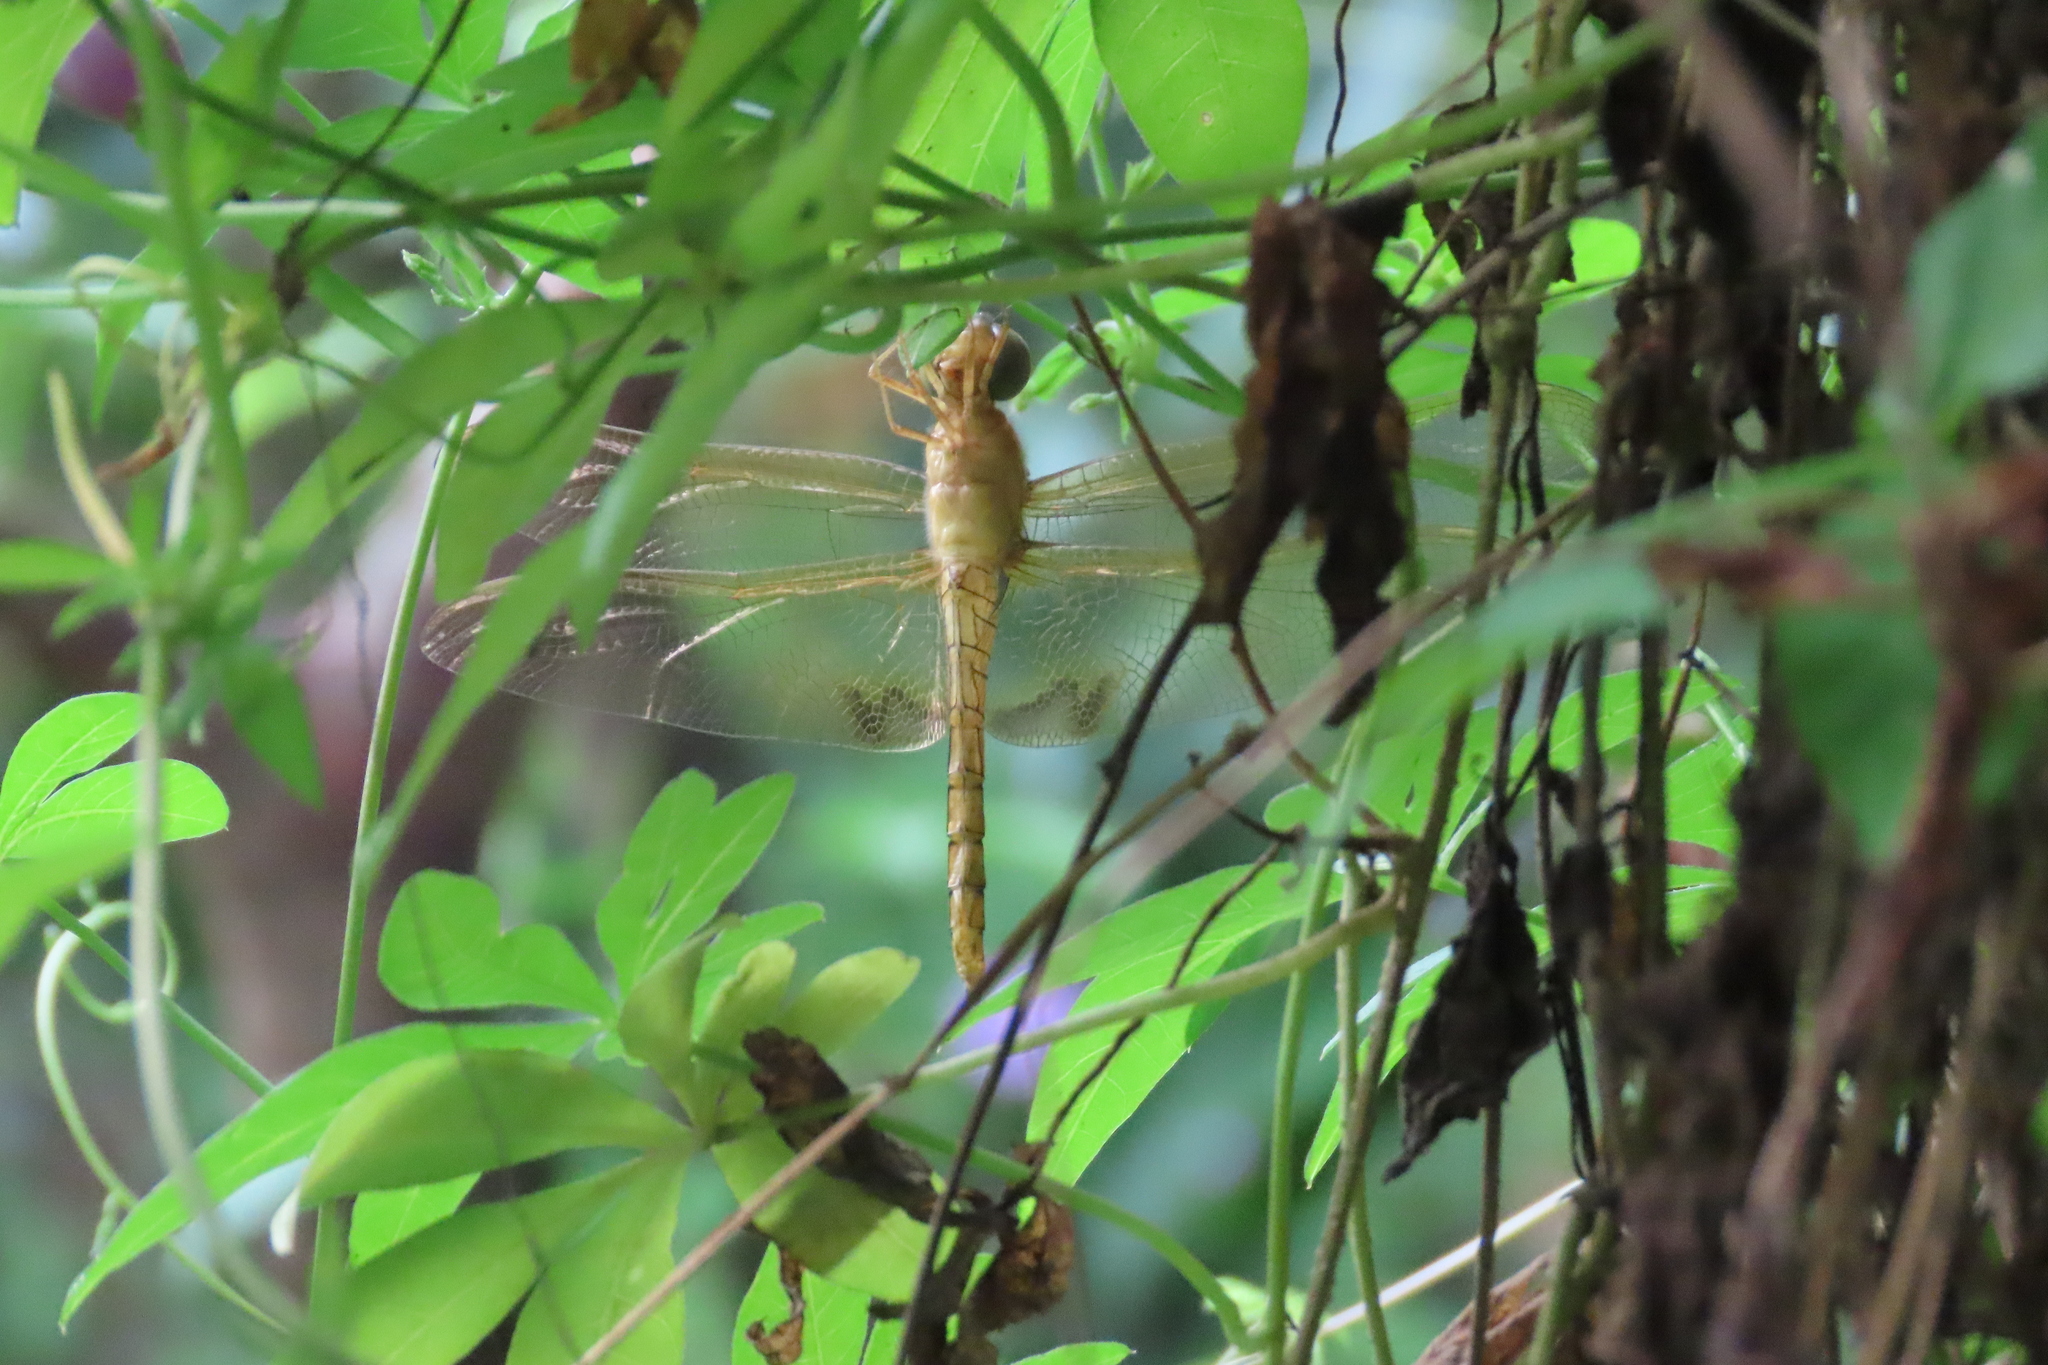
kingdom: Animalia
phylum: Arthropoda
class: Insecta
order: Odonata
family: Libellulidae
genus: Hydrobasileus
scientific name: Hydrobasileus croceus
